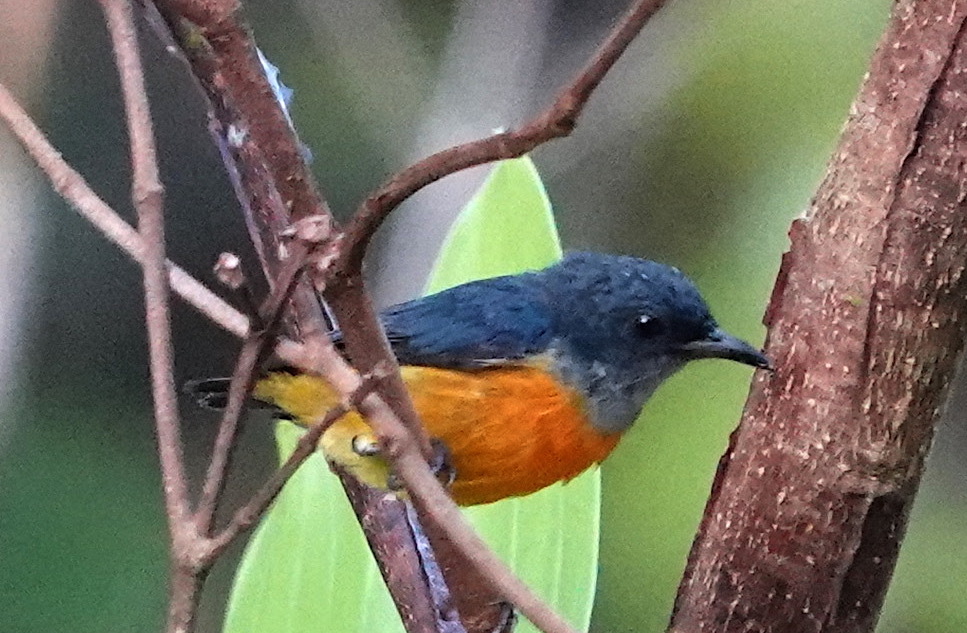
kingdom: Animalia
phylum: Chordata
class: Aves
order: Passeriformes
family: Dicaeidae
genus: Dicaeum
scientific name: Dicaeum trigonostigma
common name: Orange-bellied flowerpecker
